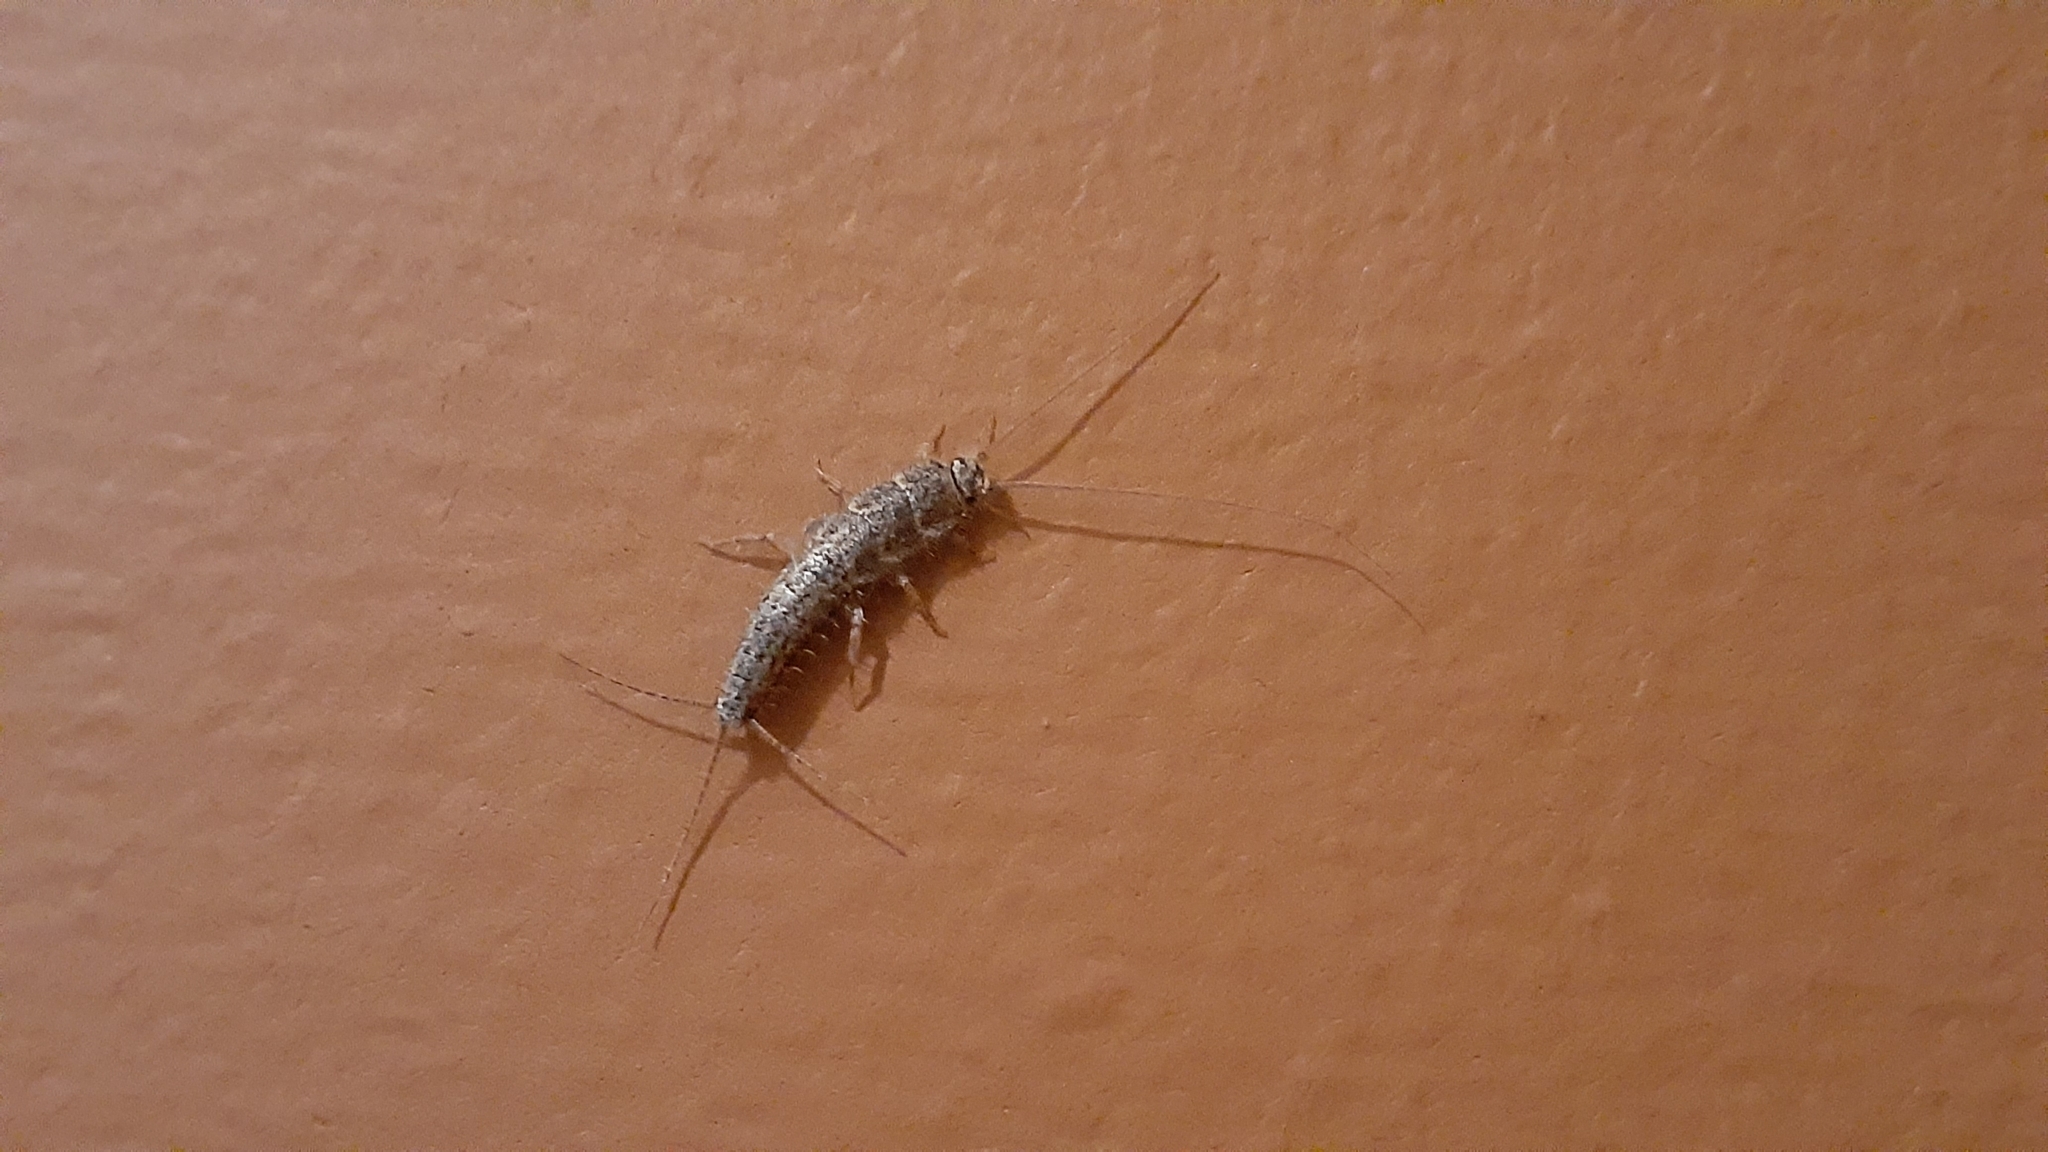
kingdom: Animalia
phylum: Arthropoda
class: Insecta
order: Zygentoma
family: Lepismatidae
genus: Ctenolepisma
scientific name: Ctenolepisma lineata
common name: Four-lined silverfish
